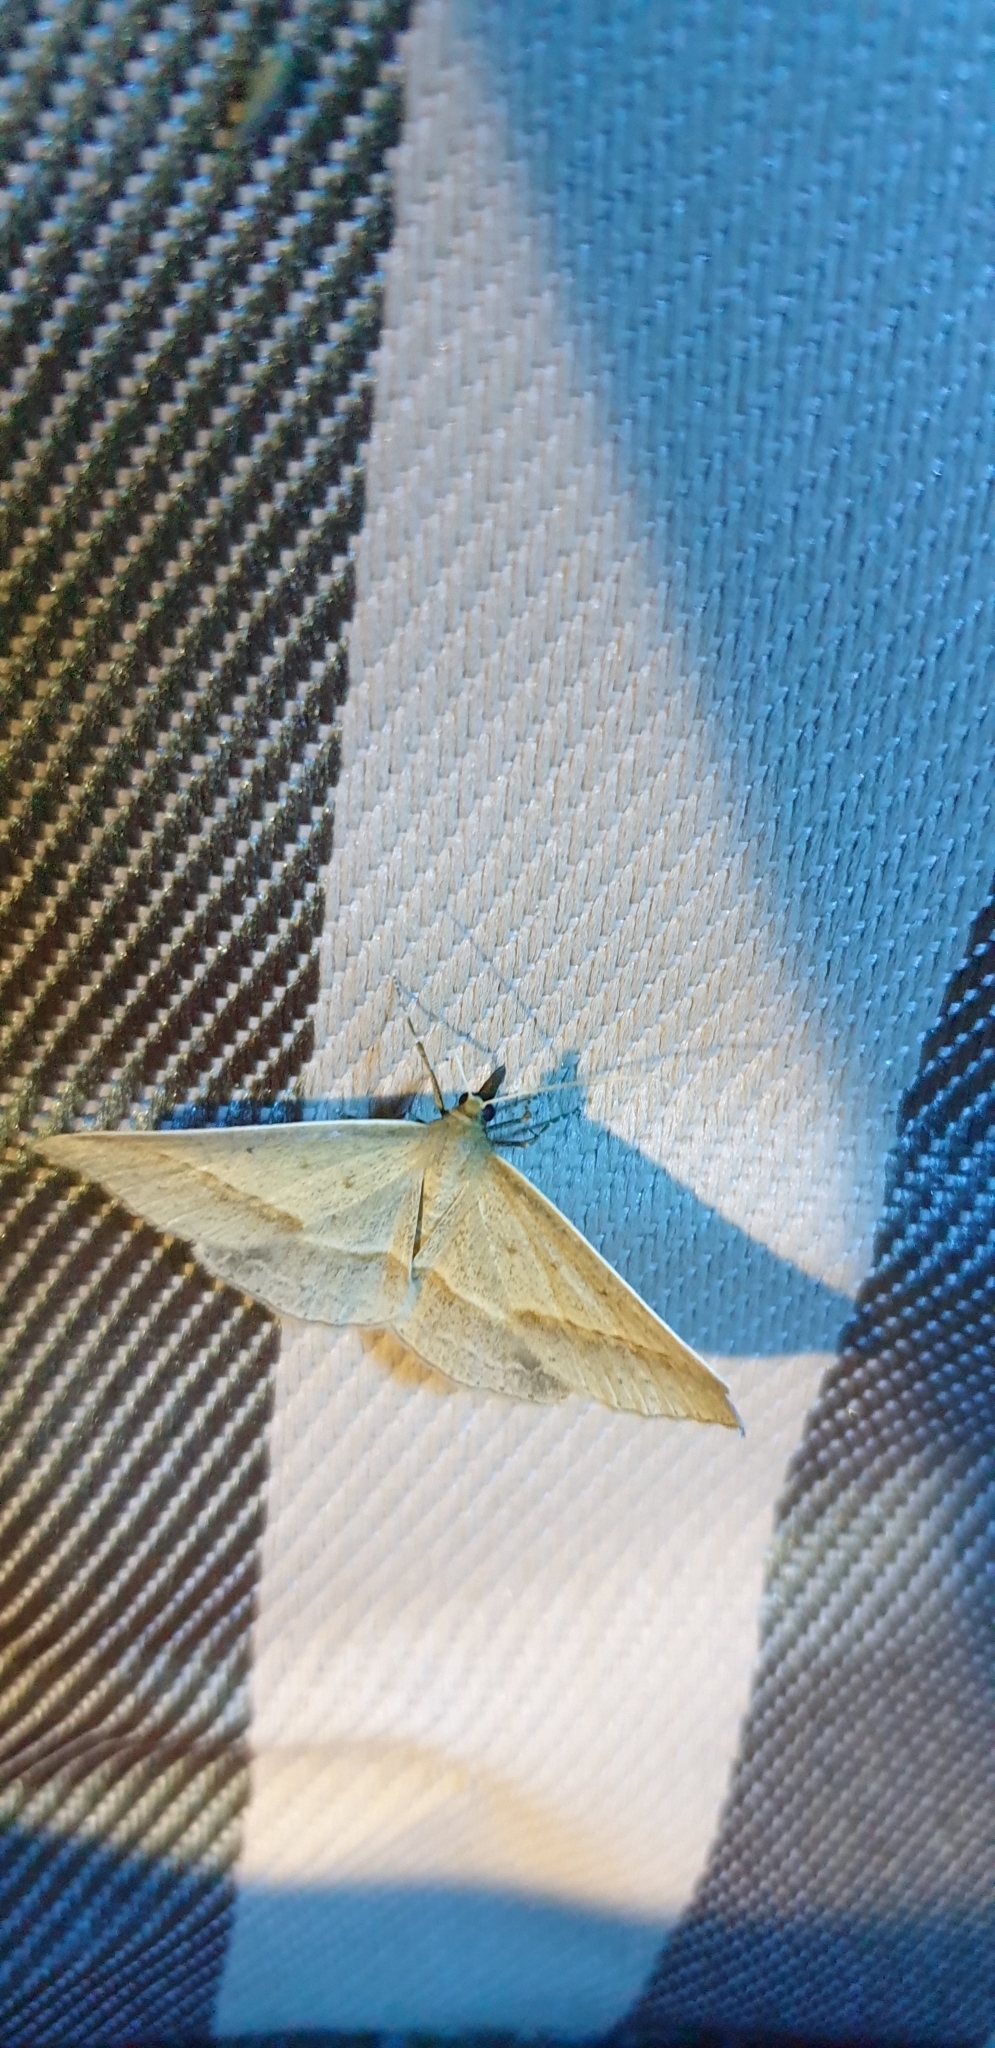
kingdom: Animalia
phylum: Arthropoda
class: Insecta
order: Lepidoptera
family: Geometridae
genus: Epidesmia
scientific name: Epidesmia tryxaria
